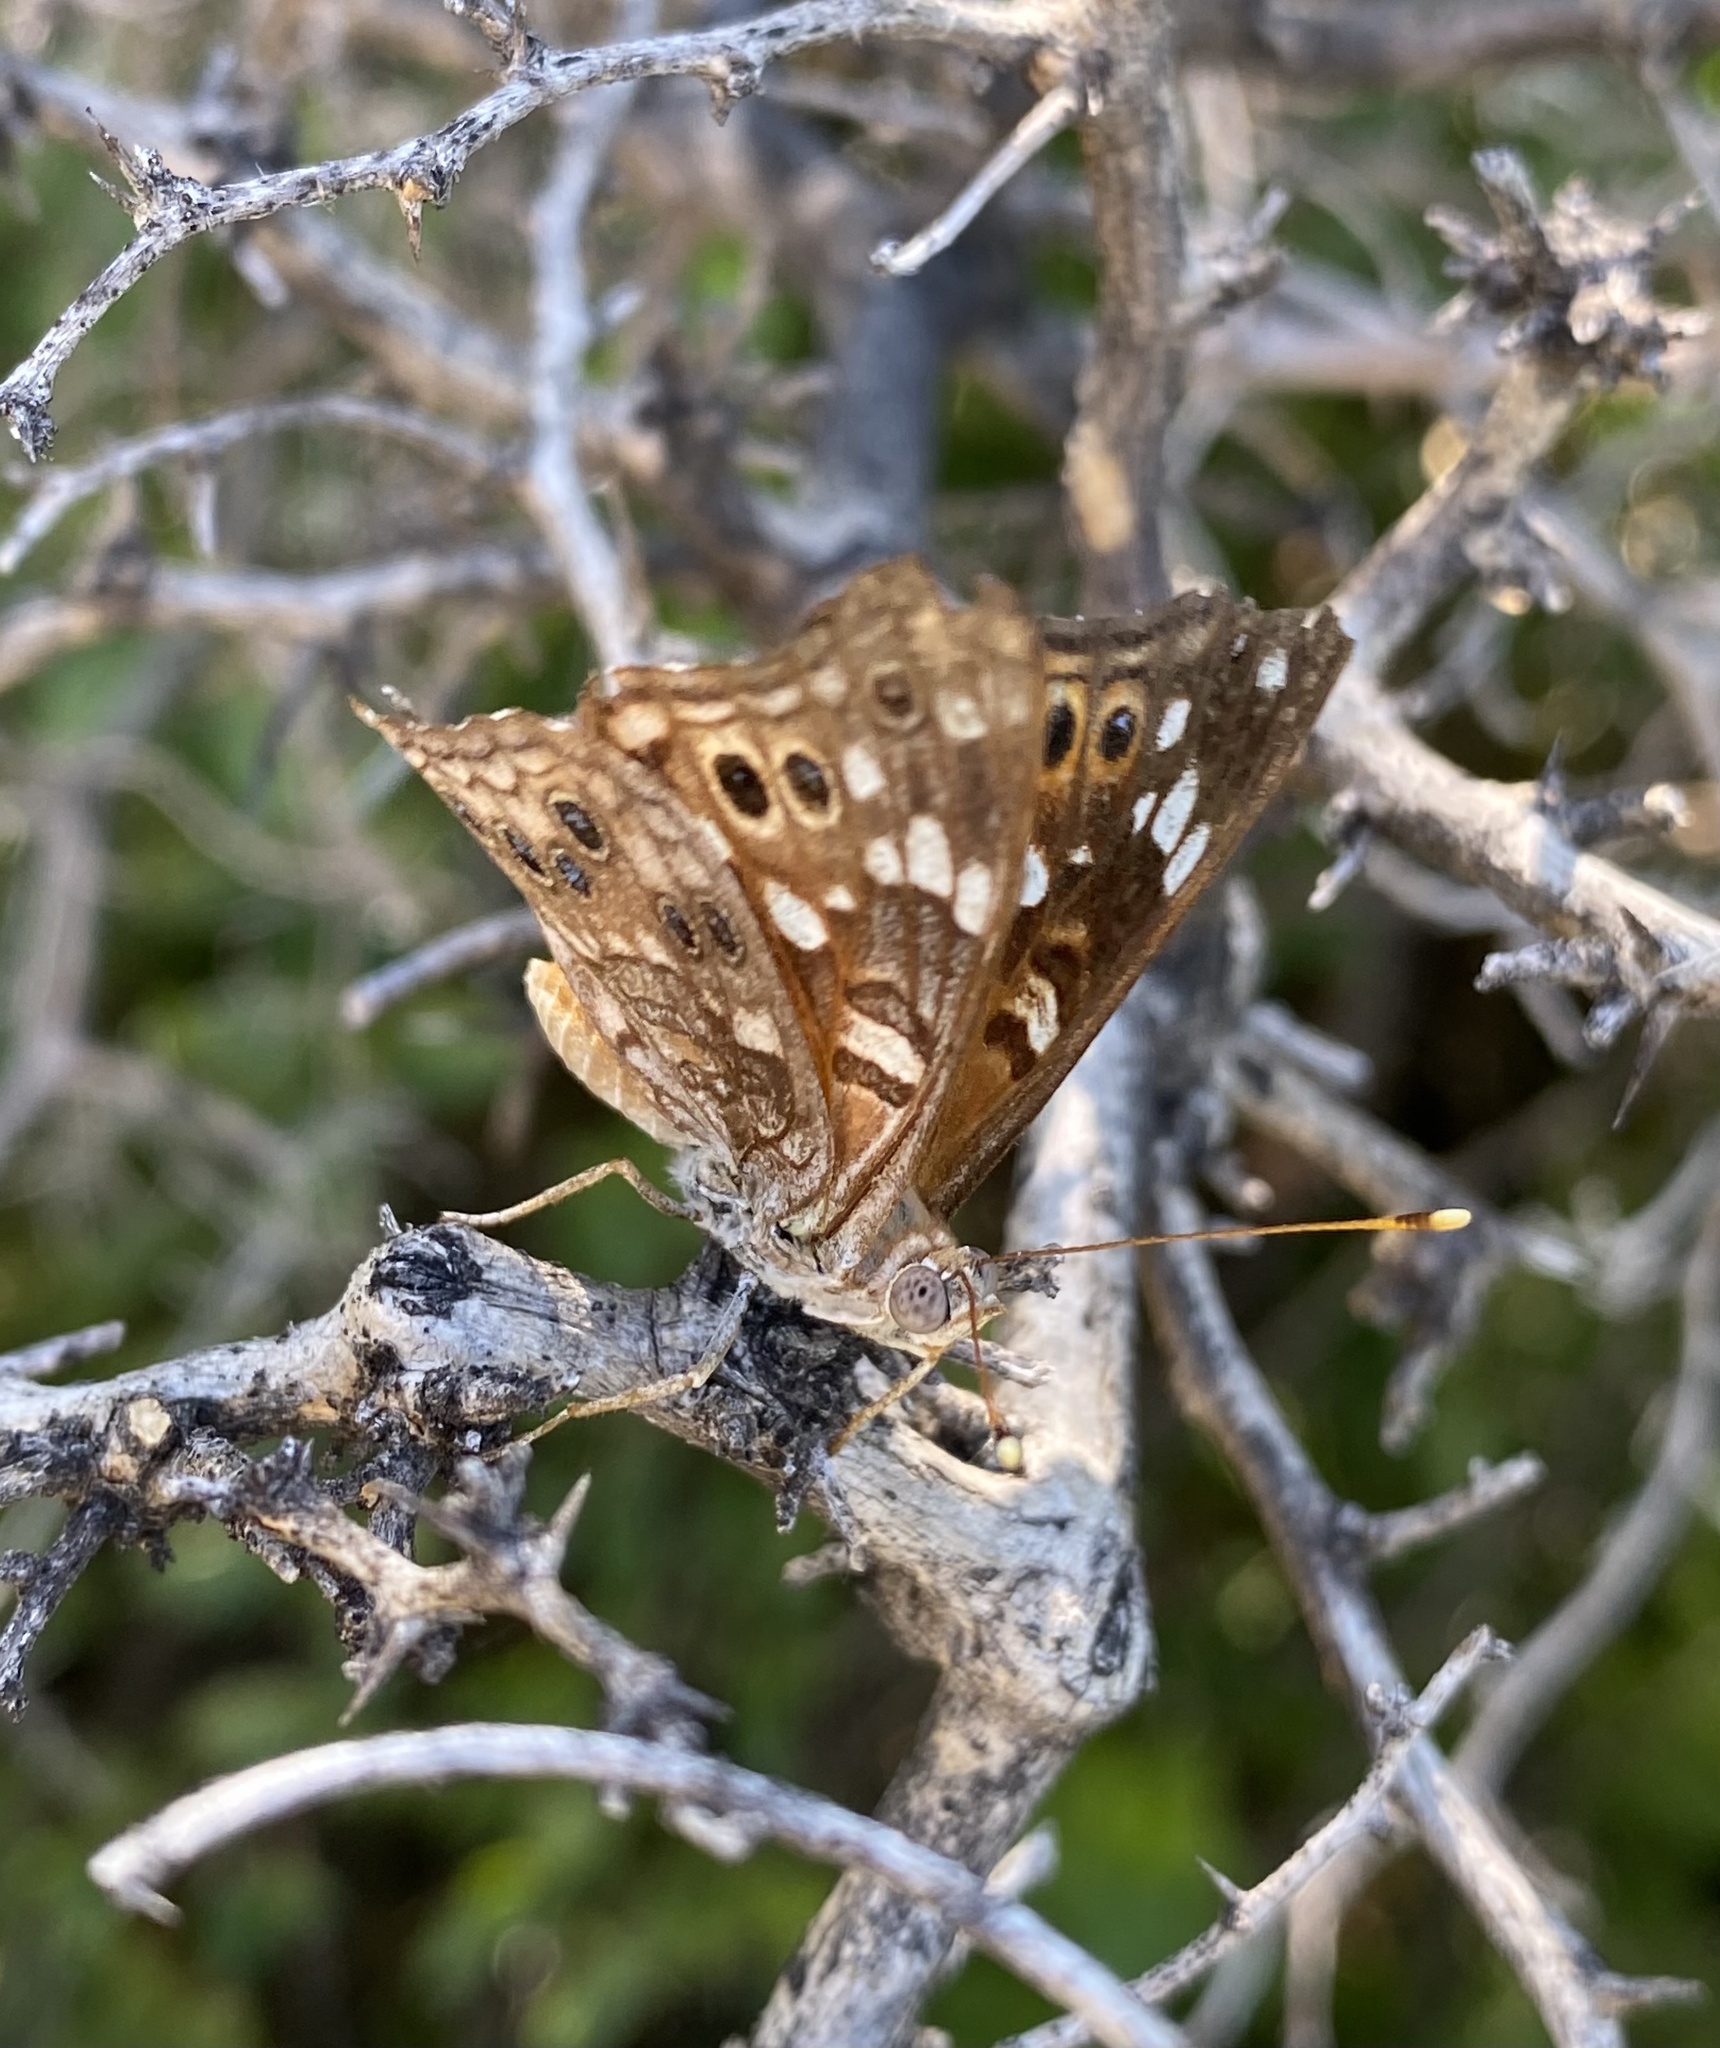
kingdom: Animalia
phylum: Arthropoda
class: Insecta
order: Lepidoptera
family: Nymphalidae
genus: Asterocampa
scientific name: Asterocampa leilia
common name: Empress leilia
